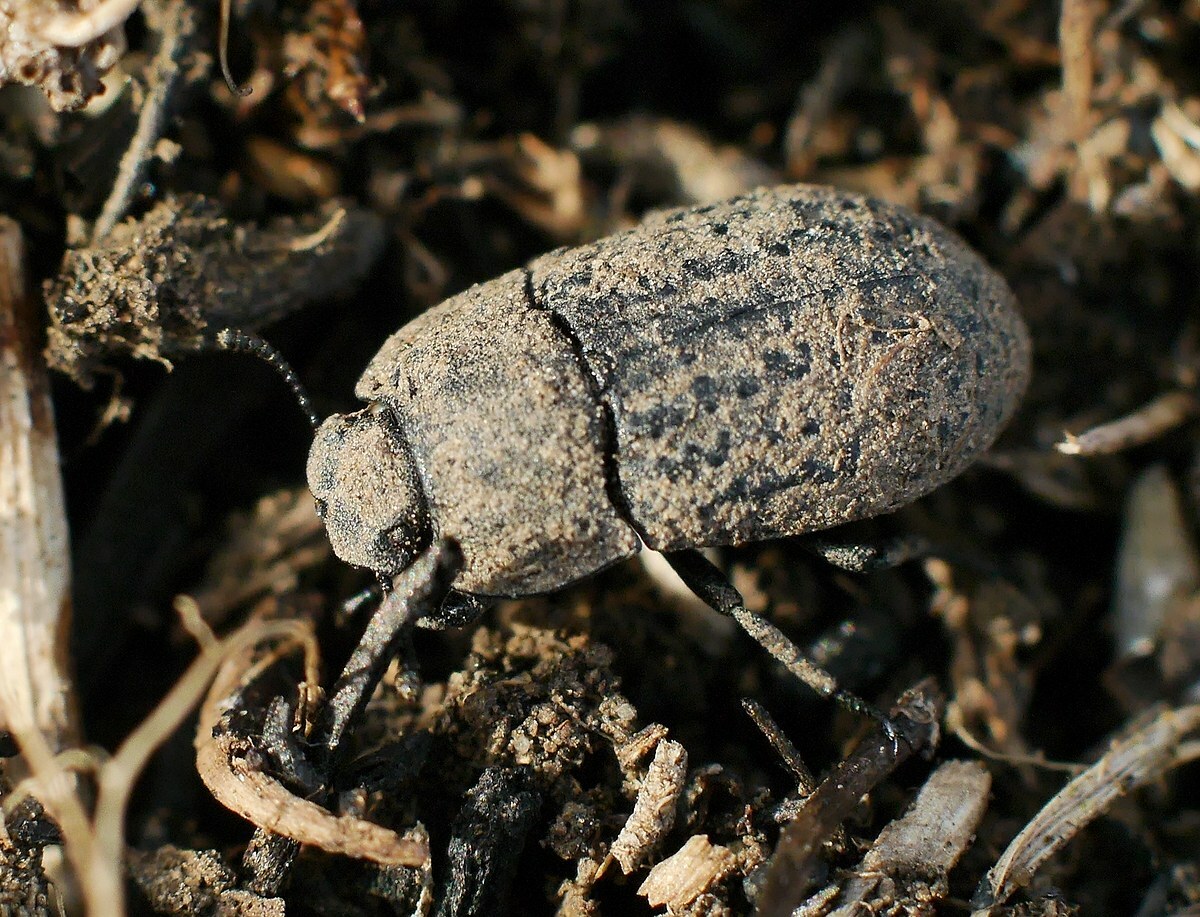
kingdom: Animalia
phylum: Arthropoda
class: Insecta
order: Coleoptera
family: Tenebrionidae
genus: Opatrum
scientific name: Opatrum sabulosum
